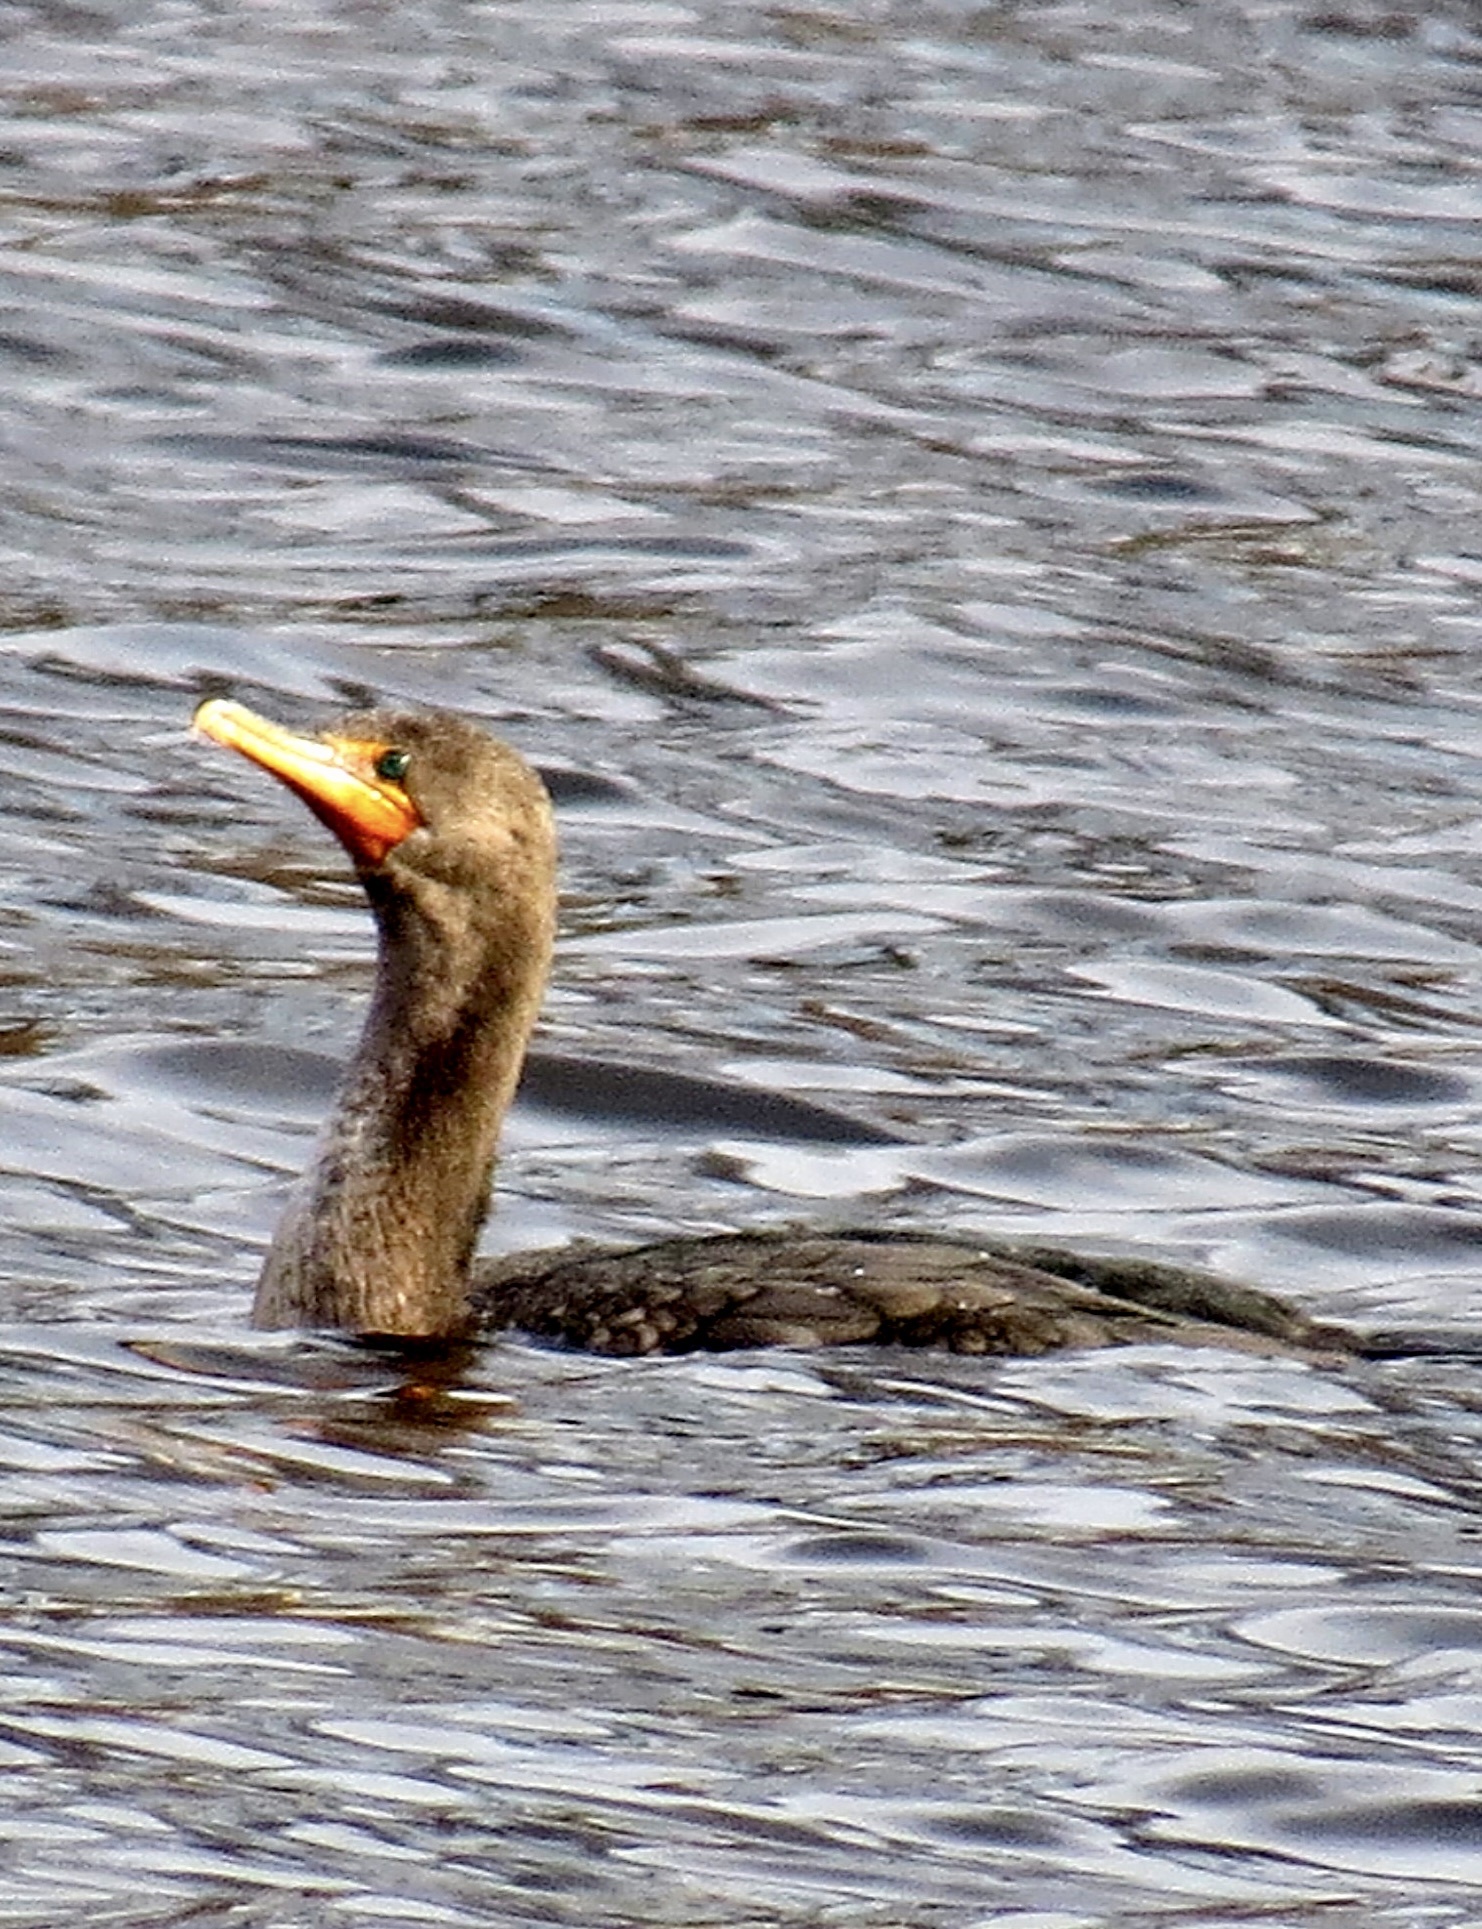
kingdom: Animalia
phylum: Chordata
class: Aves
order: Suliformes
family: Phalacrocoracidae
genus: Phalacrocorax
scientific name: Phalacrocorax auritus
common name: Double-crested cormorant
